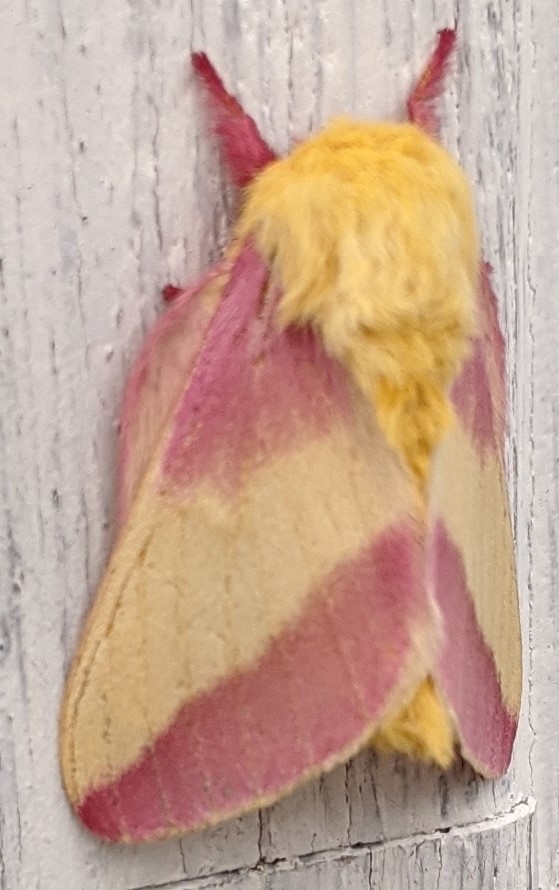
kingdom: Animalia
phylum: Arthropoda
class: Insecta
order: Lepidoptera
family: Saturniidae
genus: Dryocampa
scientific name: Dryocampa rubicunda
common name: Rosy maple moth
